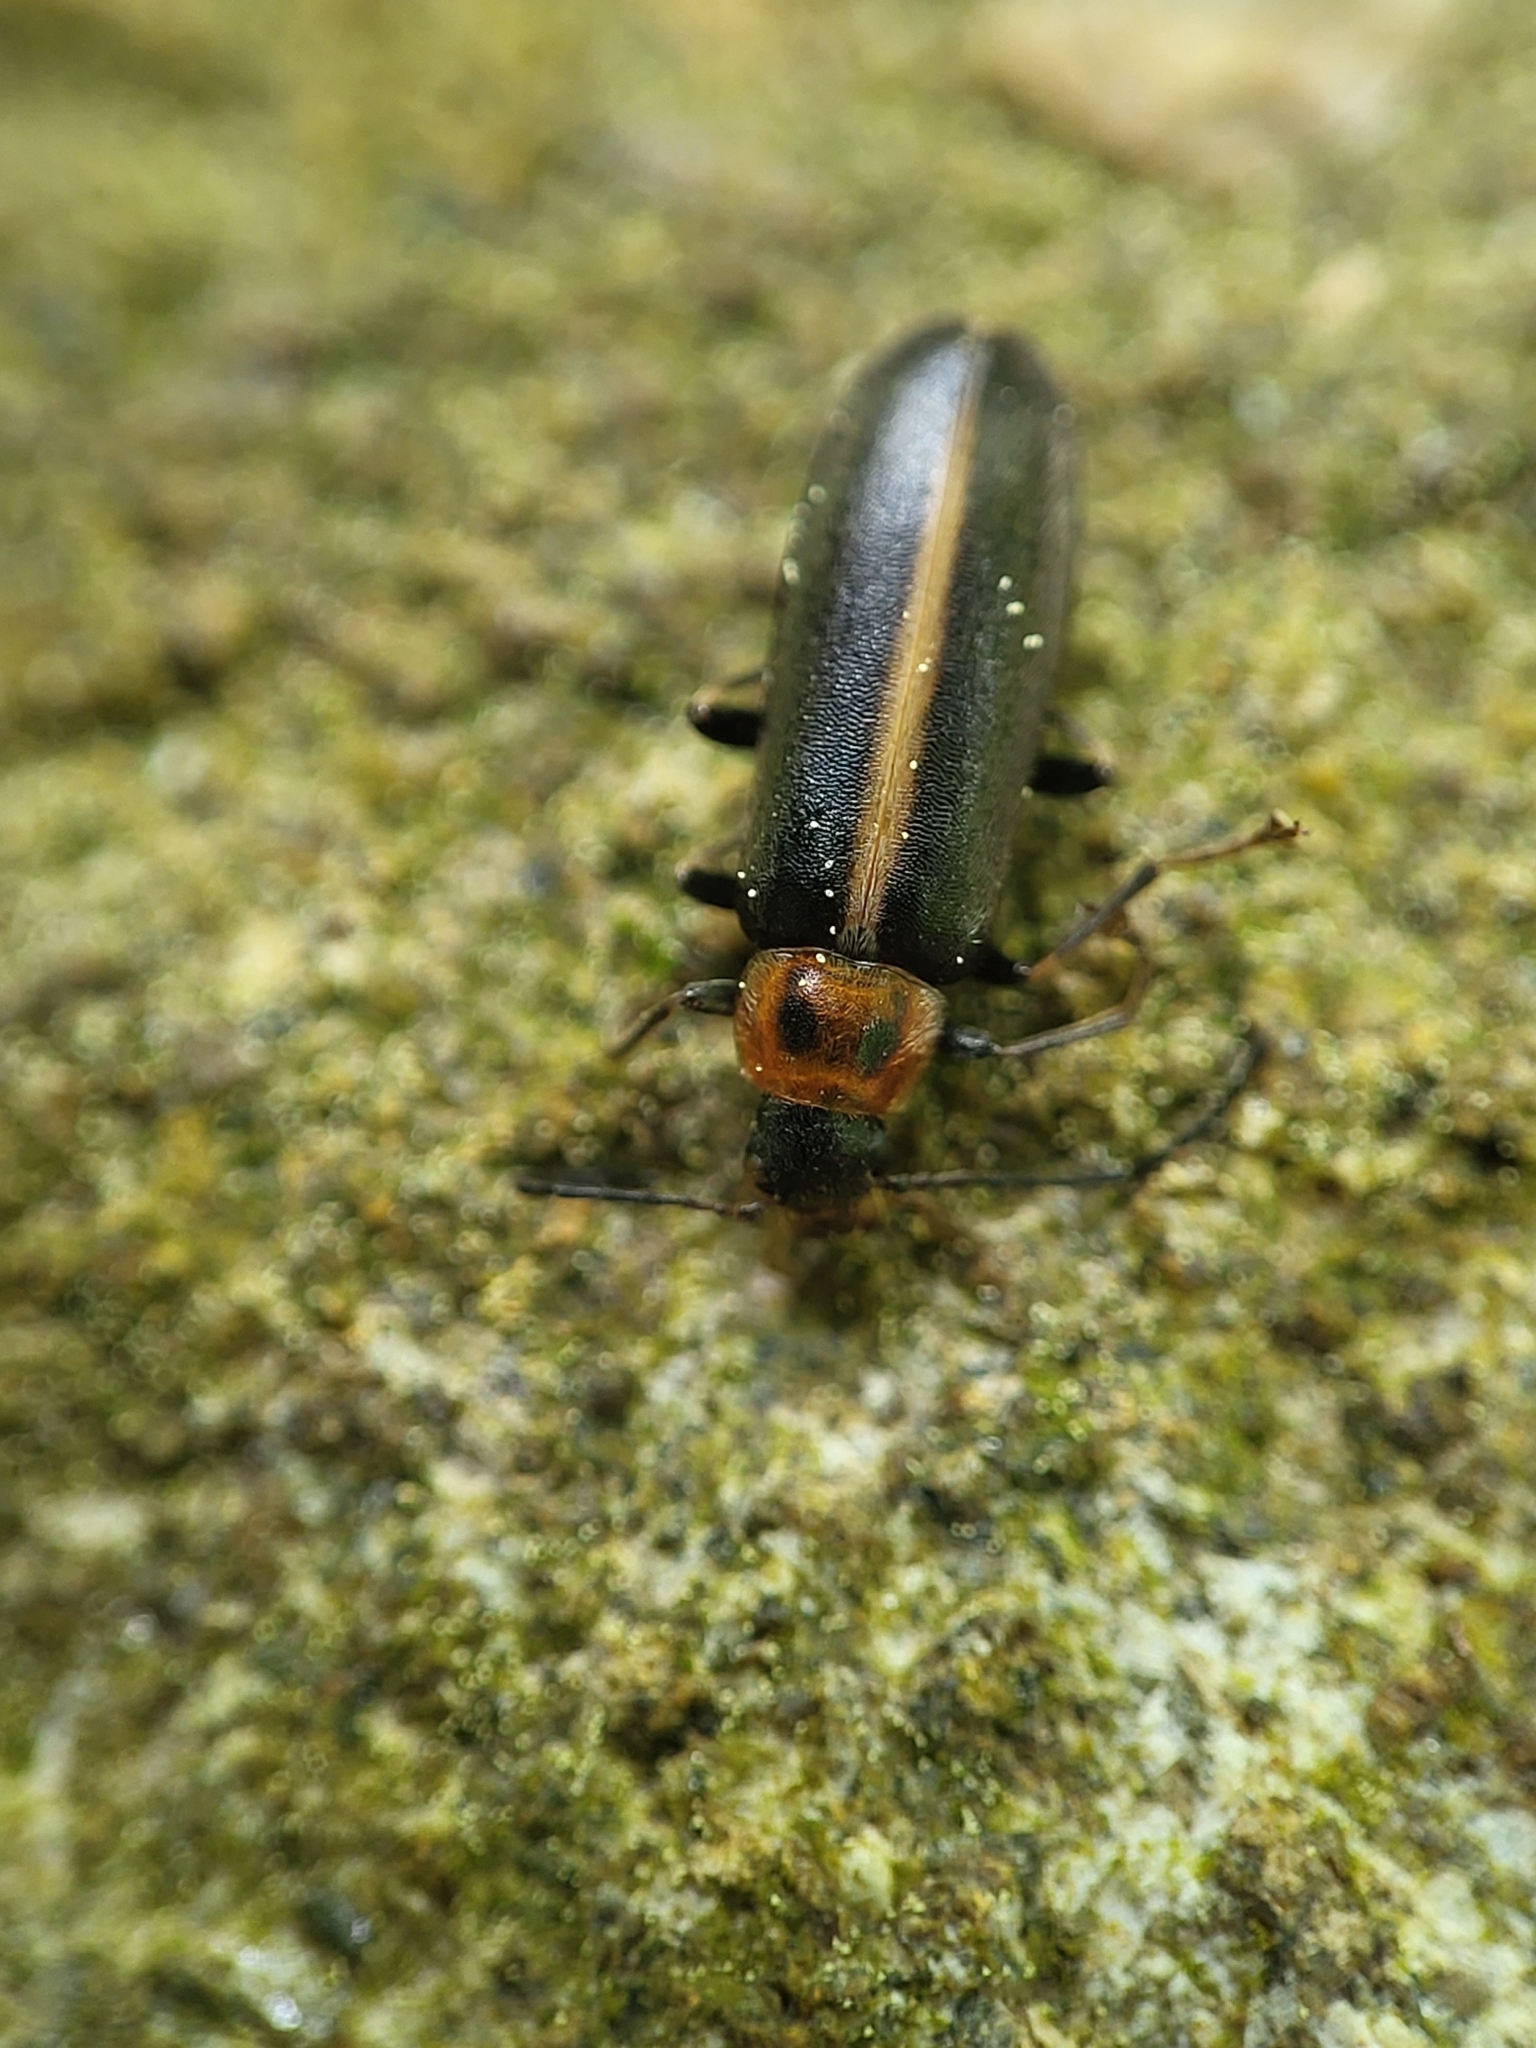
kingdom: Animalia
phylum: Arthropoda
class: Insecta
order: Coleoptera
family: Melandryidae
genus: Osphya
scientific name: Osphya varians
